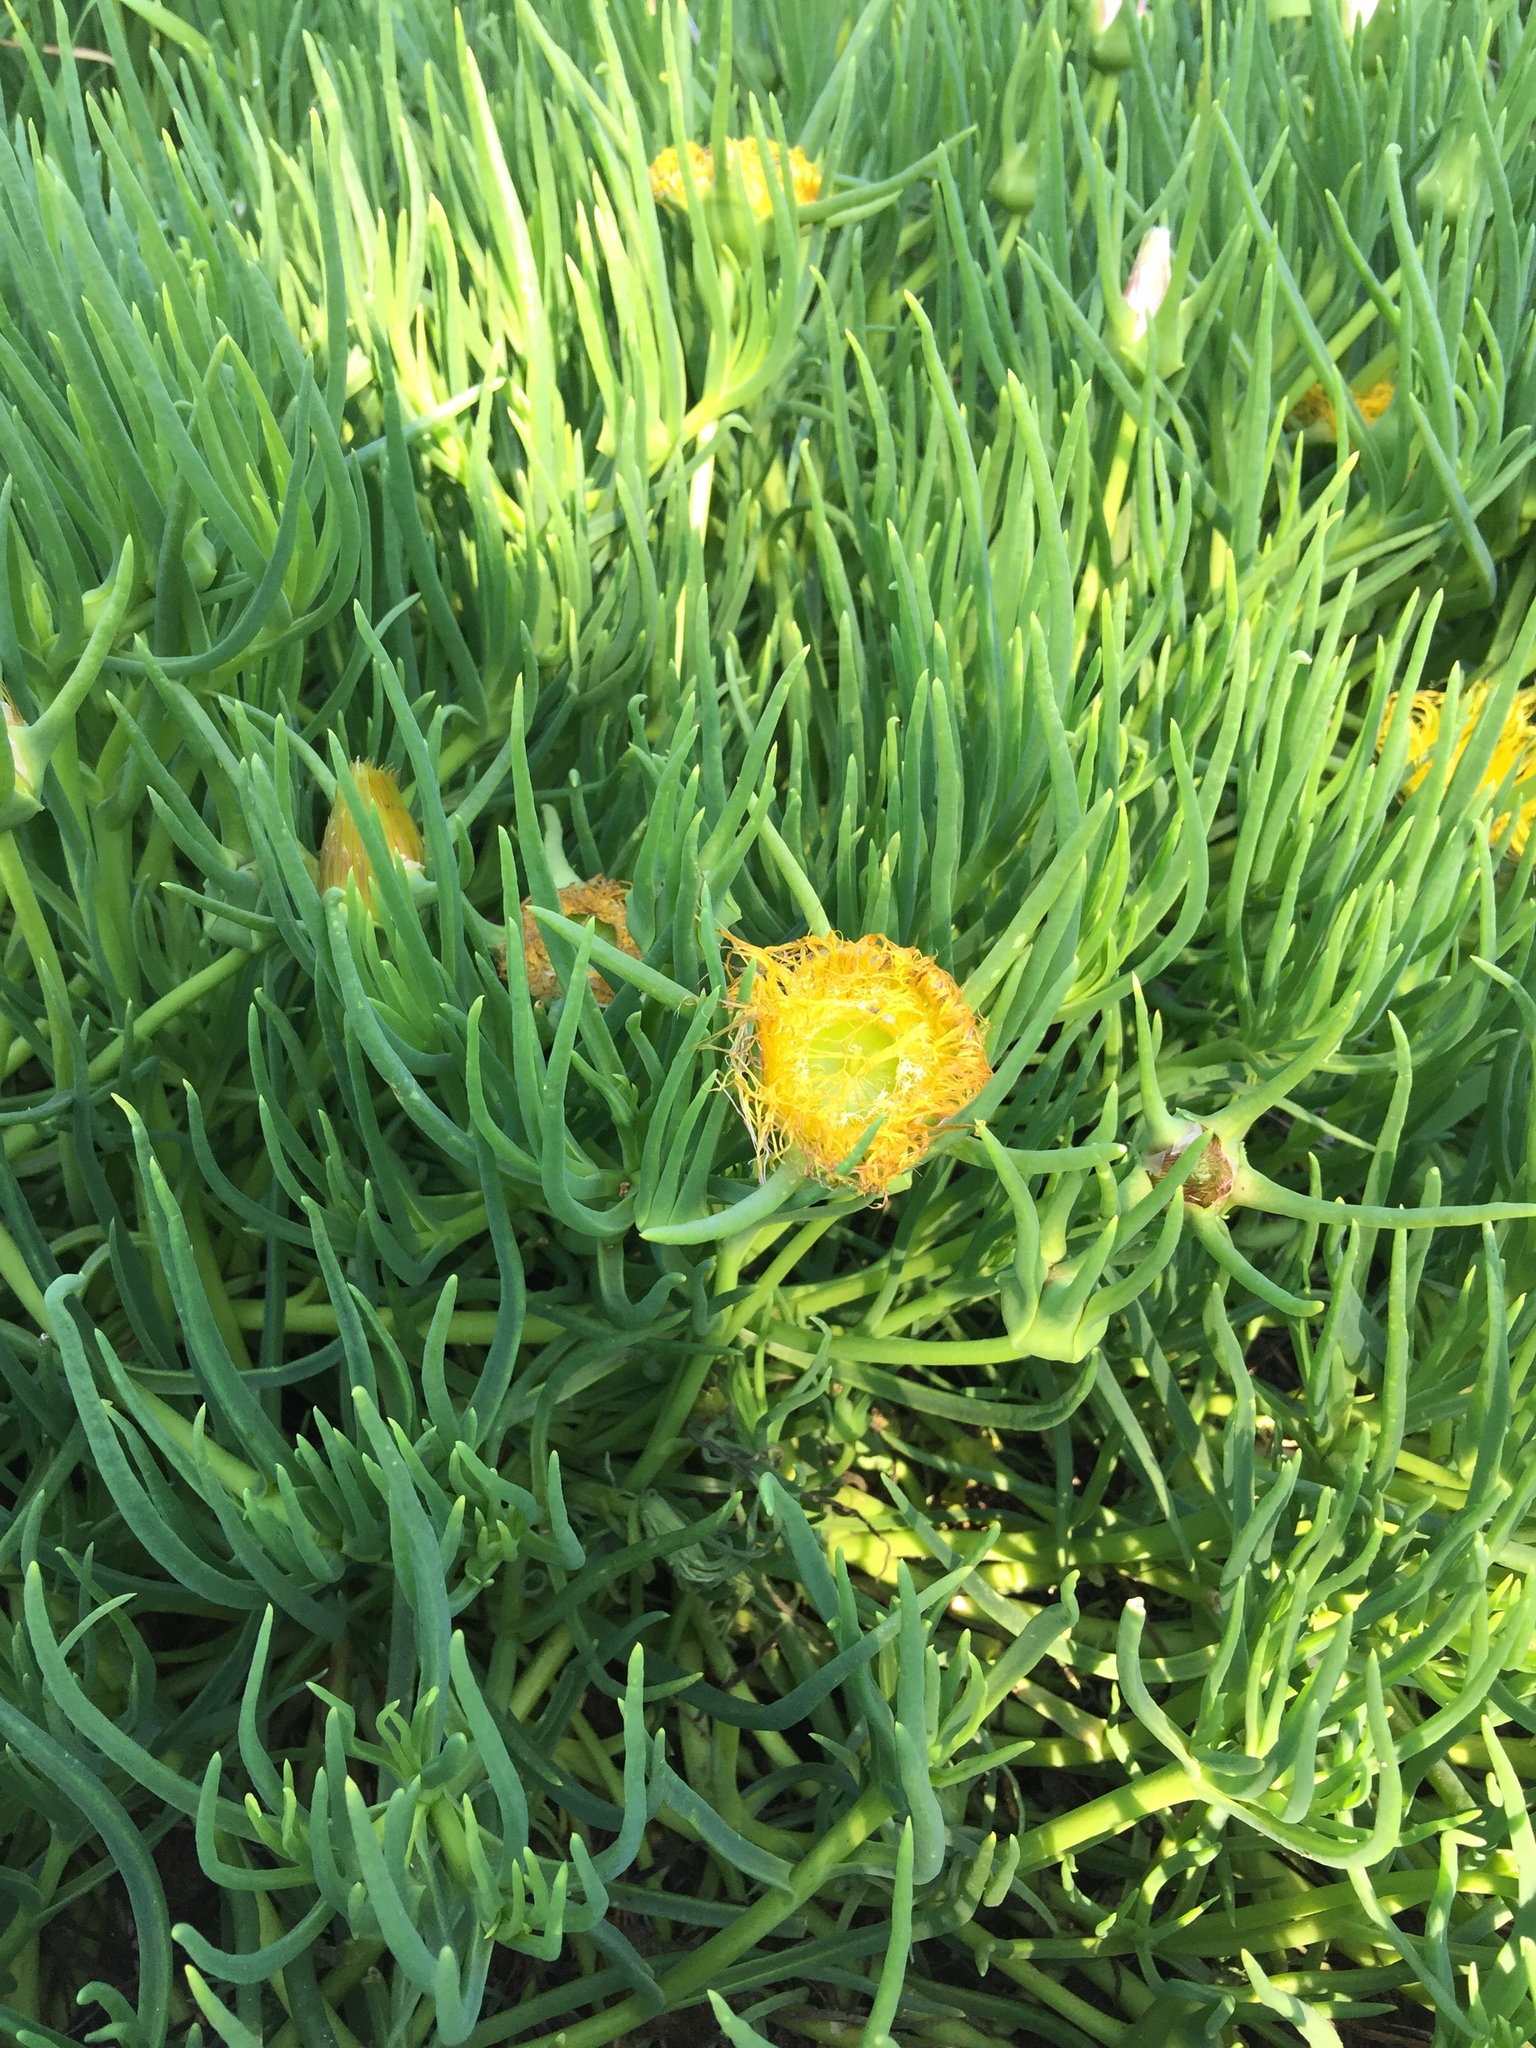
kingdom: Plantae
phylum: Tracheophyta
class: Magnoliopsida
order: Caryophyllales
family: Aizoaceae
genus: Conicosia
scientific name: Conicosia pugioniformis
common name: Narrow-leaved iceplant
